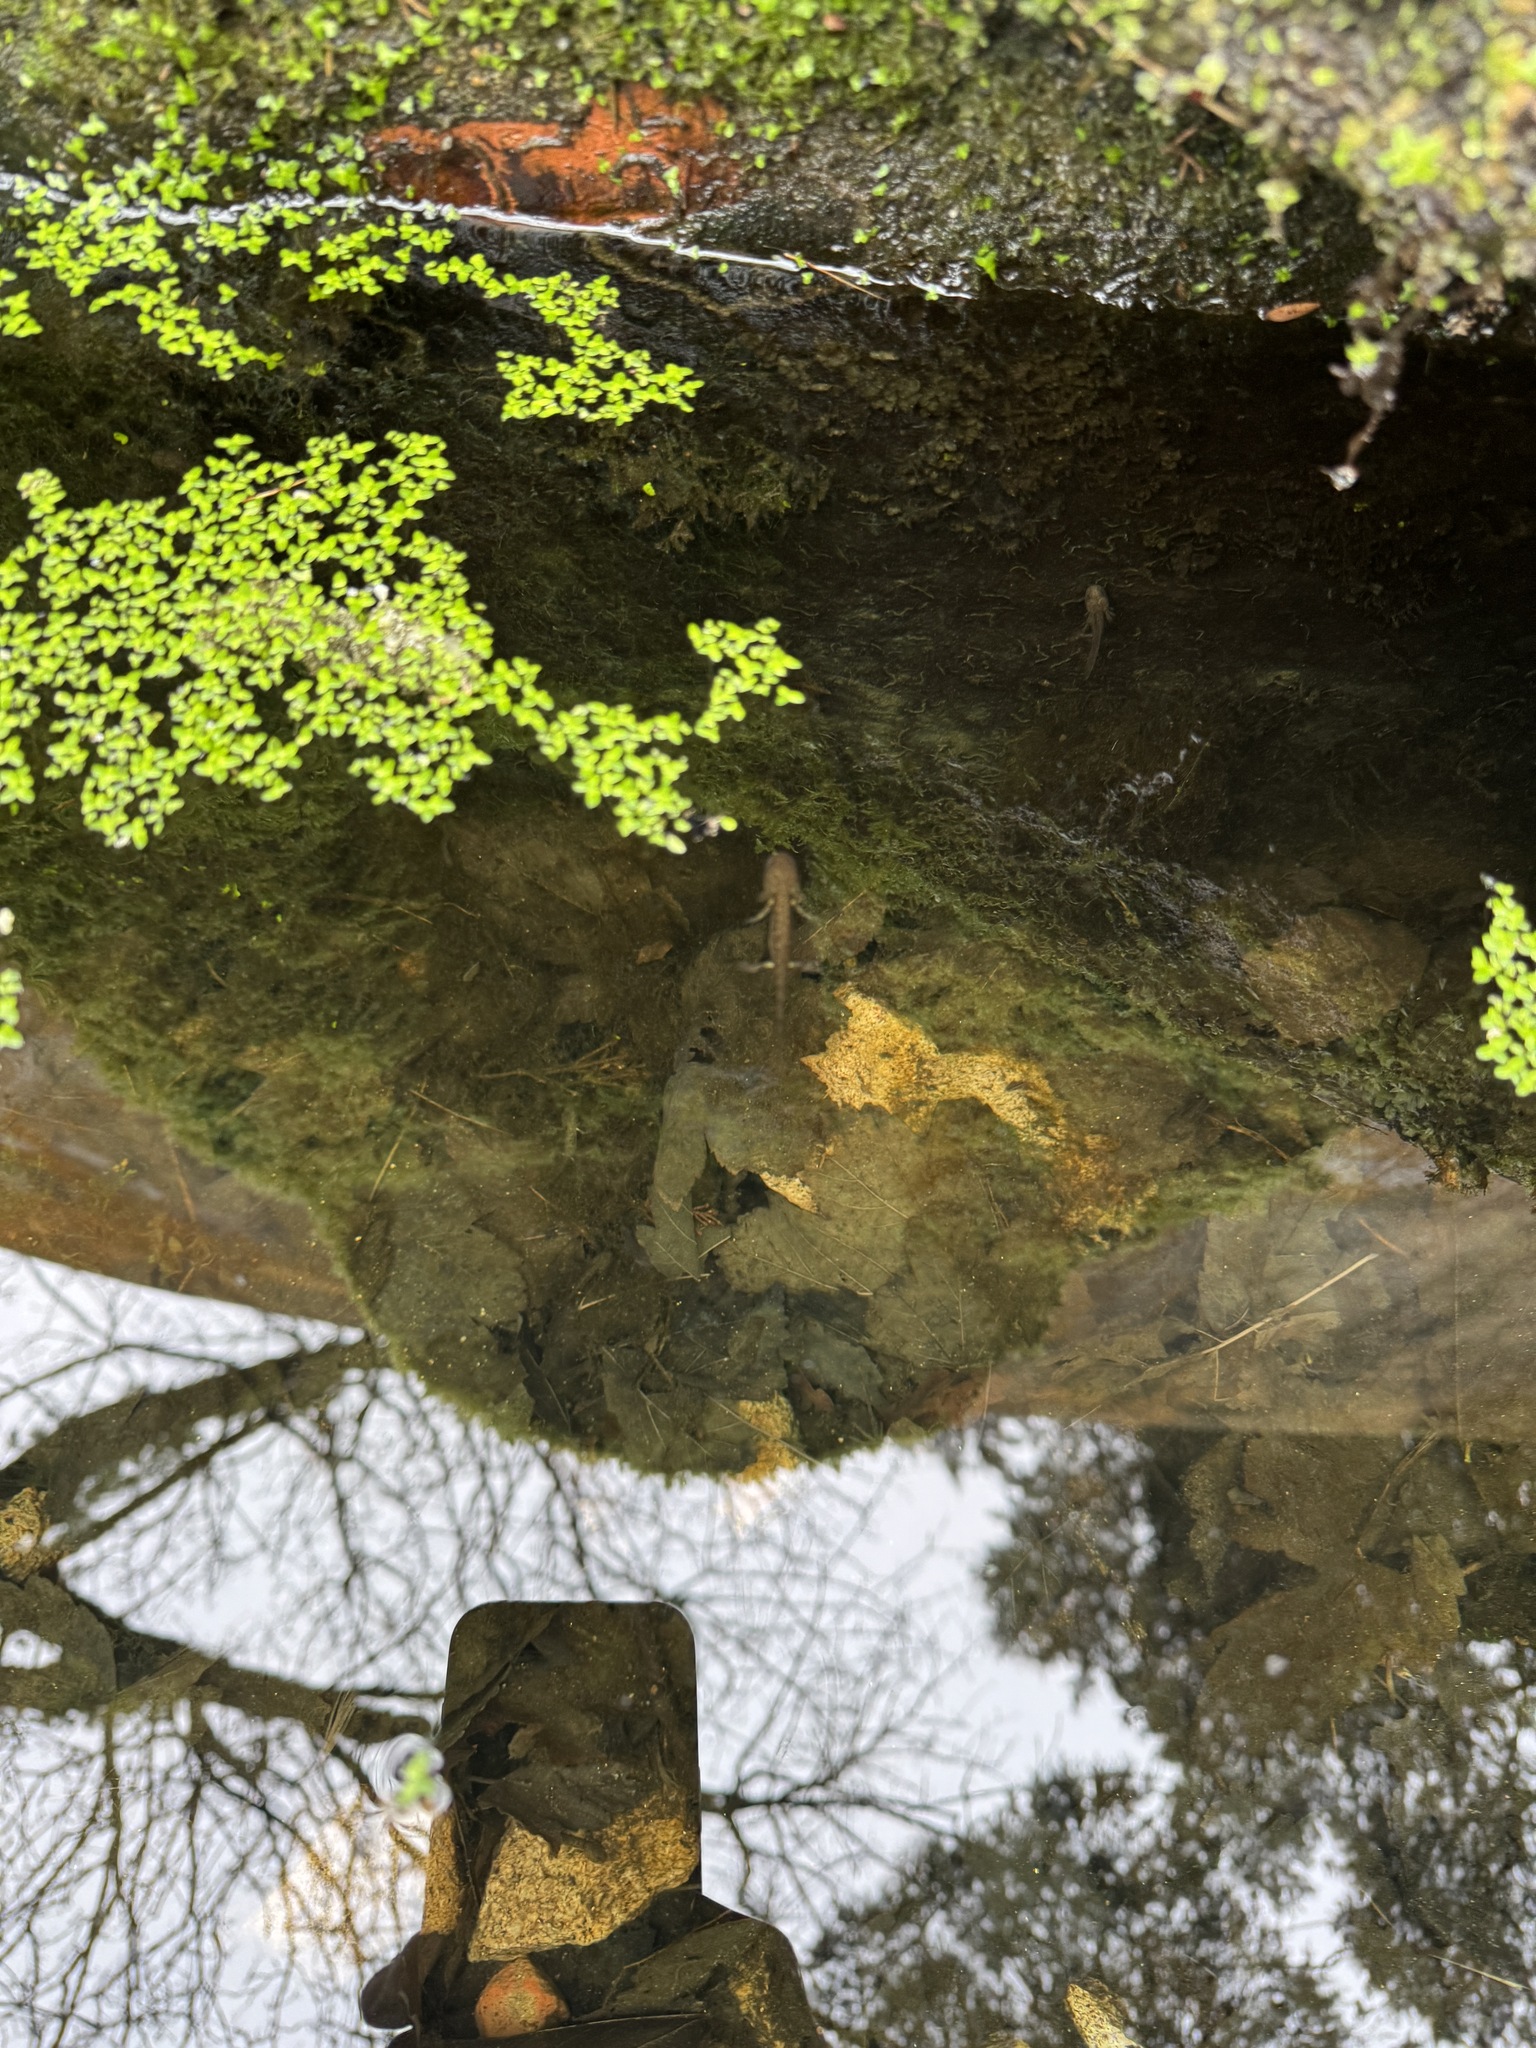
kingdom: Animalia
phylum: Chordata
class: Amphibia
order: Caudata
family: Salamandridae
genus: Salamandra
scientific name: Salamandra salamandra
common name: Fire salamander
